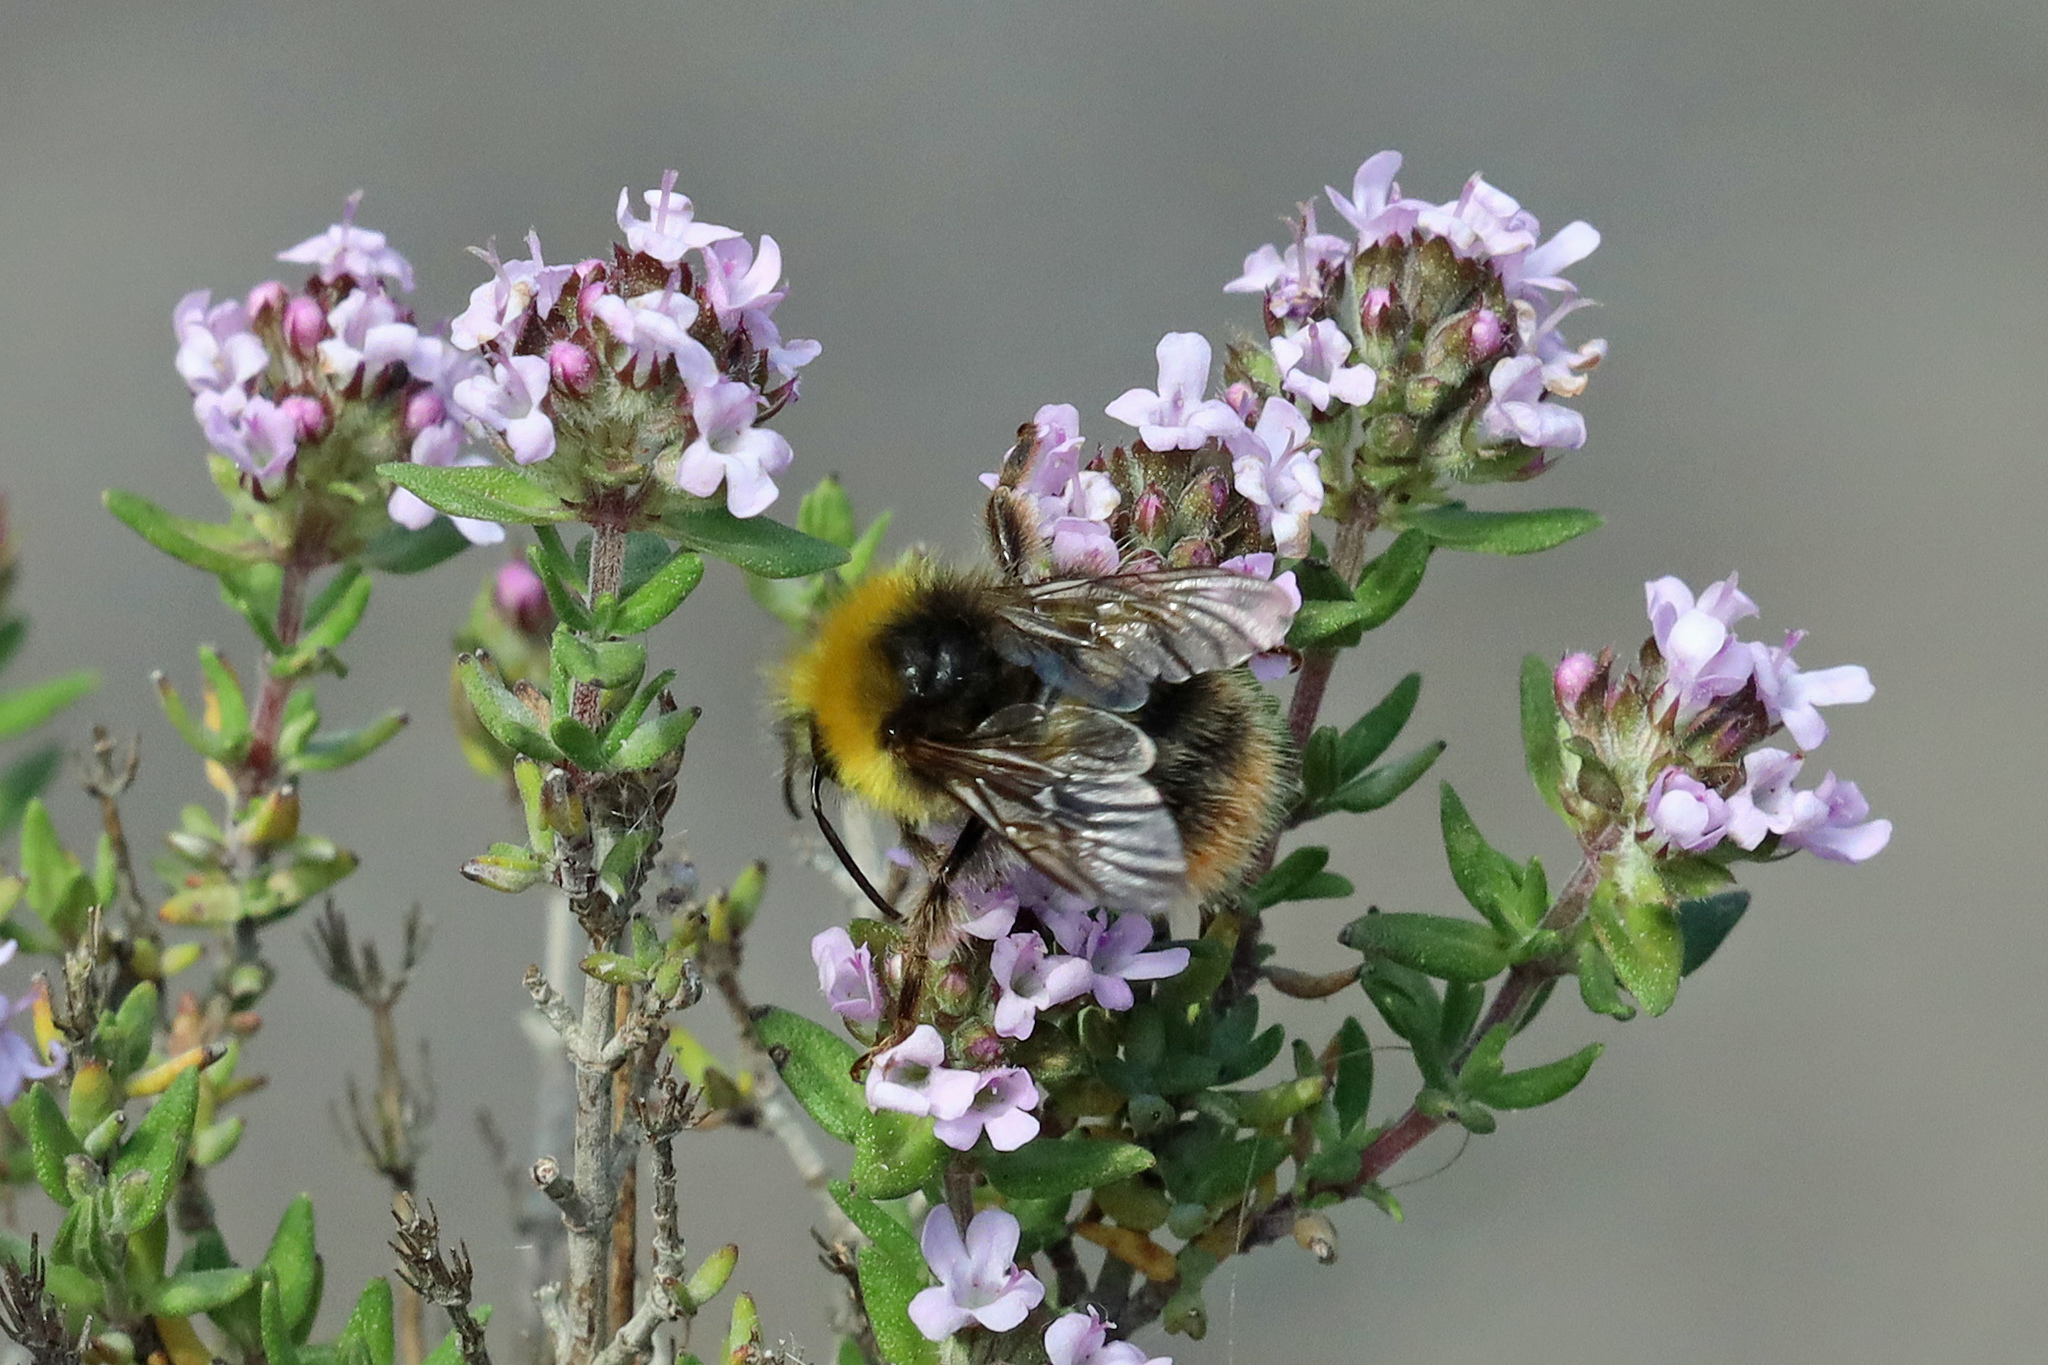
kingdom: Animalia
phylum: Arthropoda
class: Insecta
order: Hymenoptera
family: Apidae
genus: Bombus
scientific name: Bombus pratorum
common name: Early humble-bee
